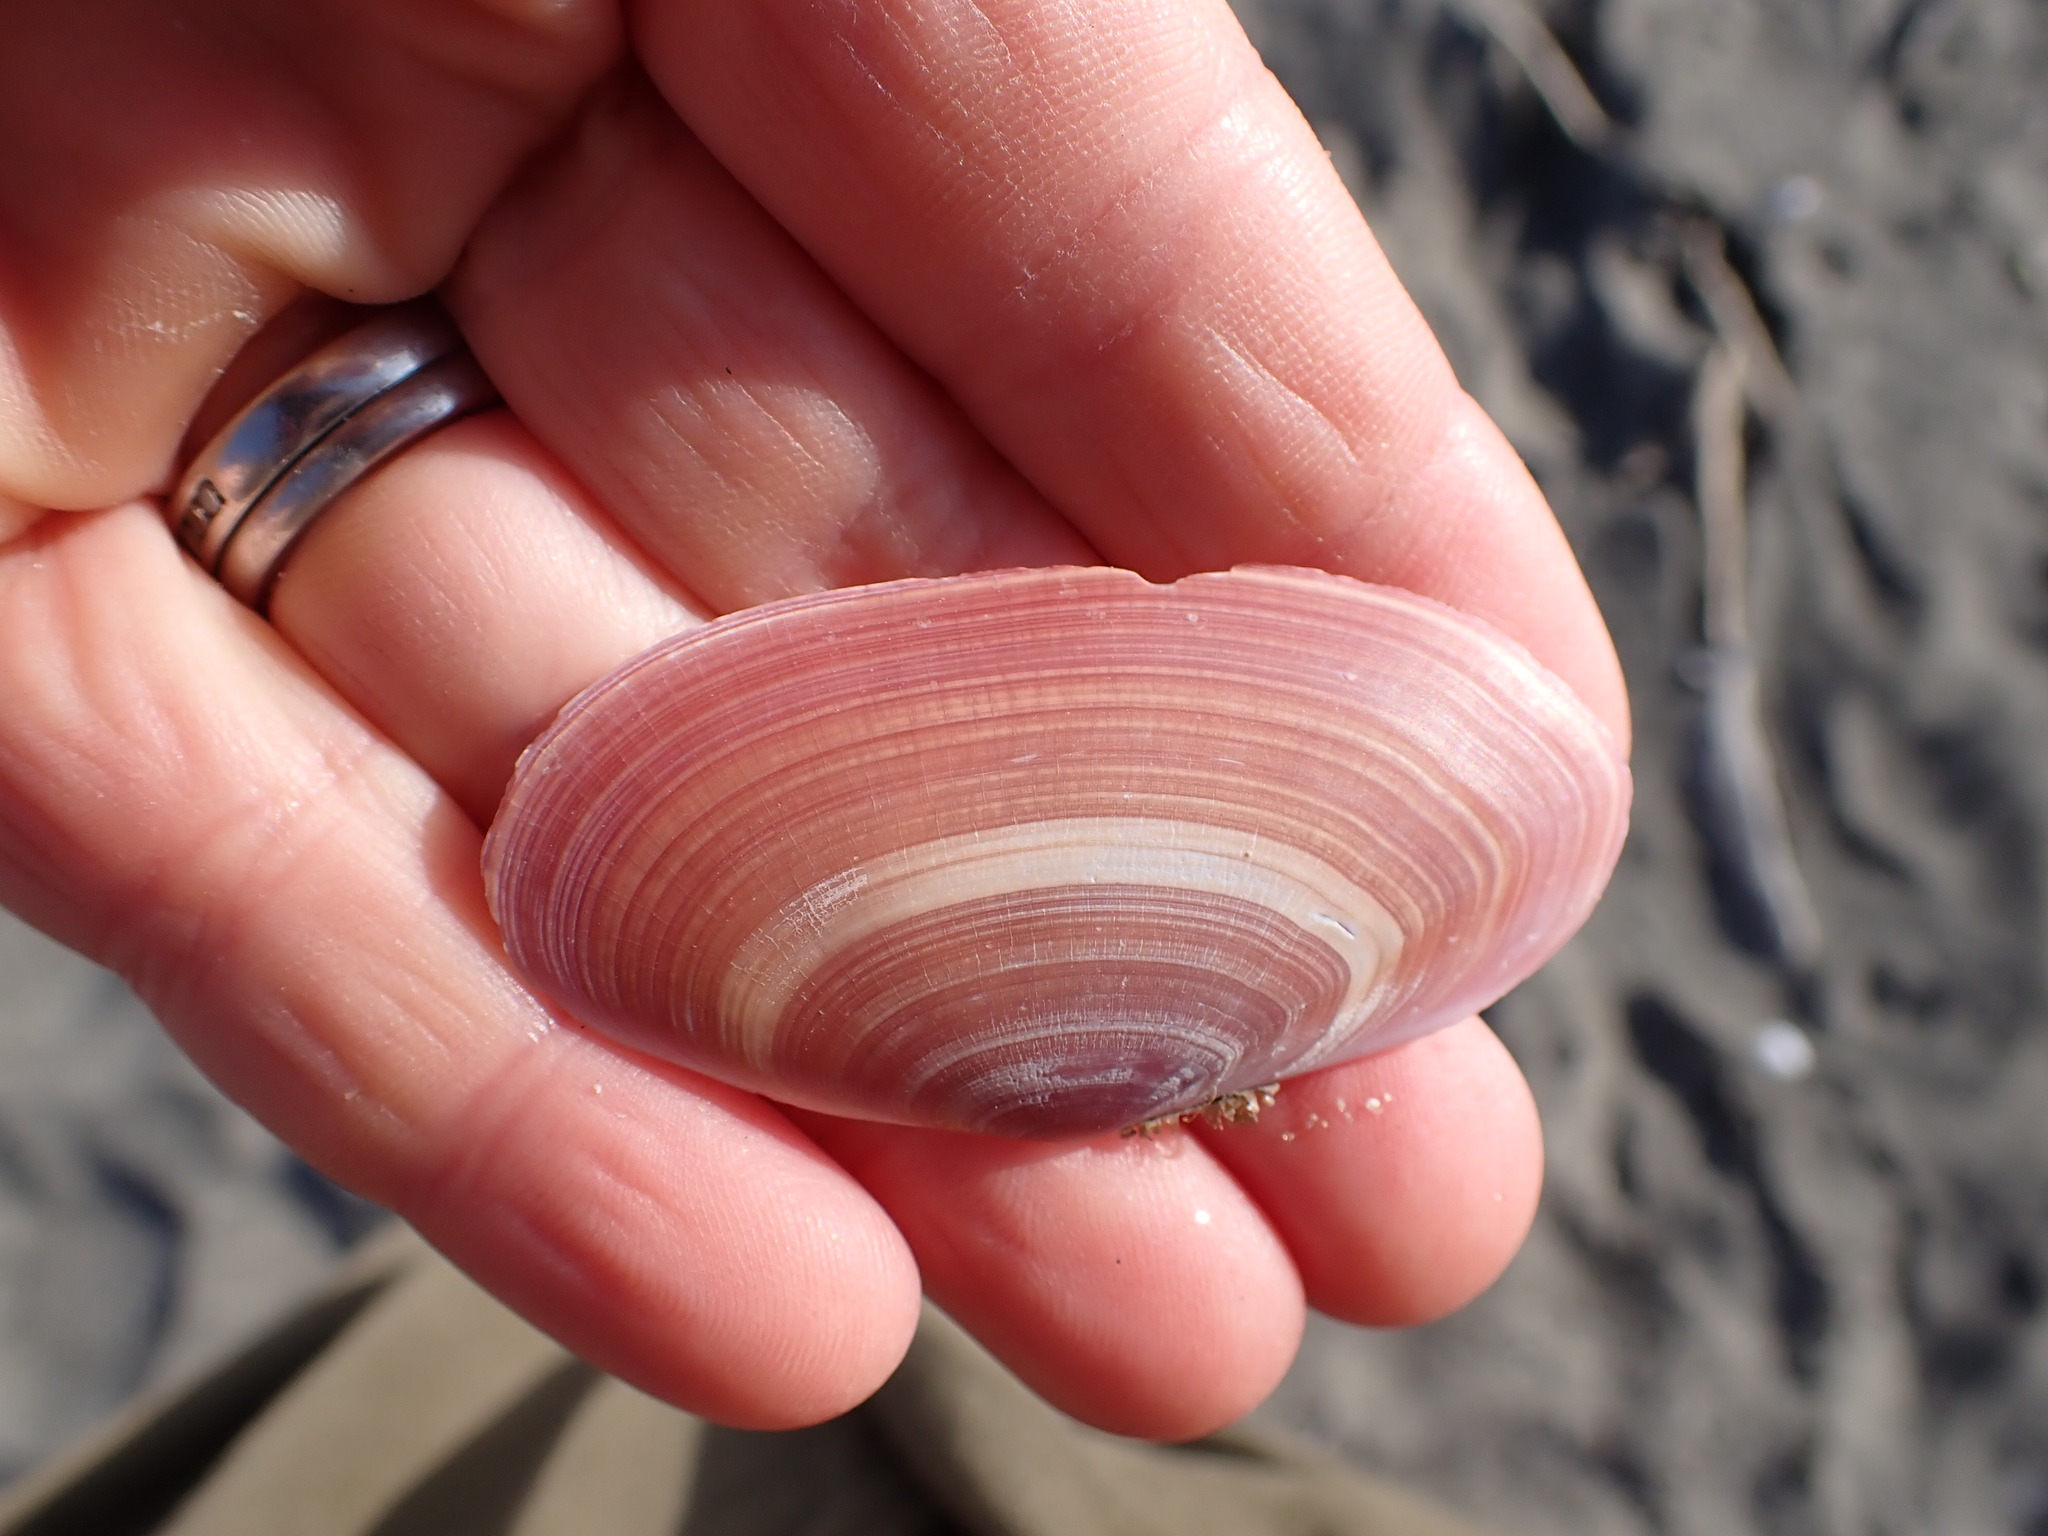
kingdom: Animalia
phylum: Mollusca
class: Bivalvia
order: Cardiida
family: Psammobiidae
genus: Gari
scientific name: Gari lineolata
